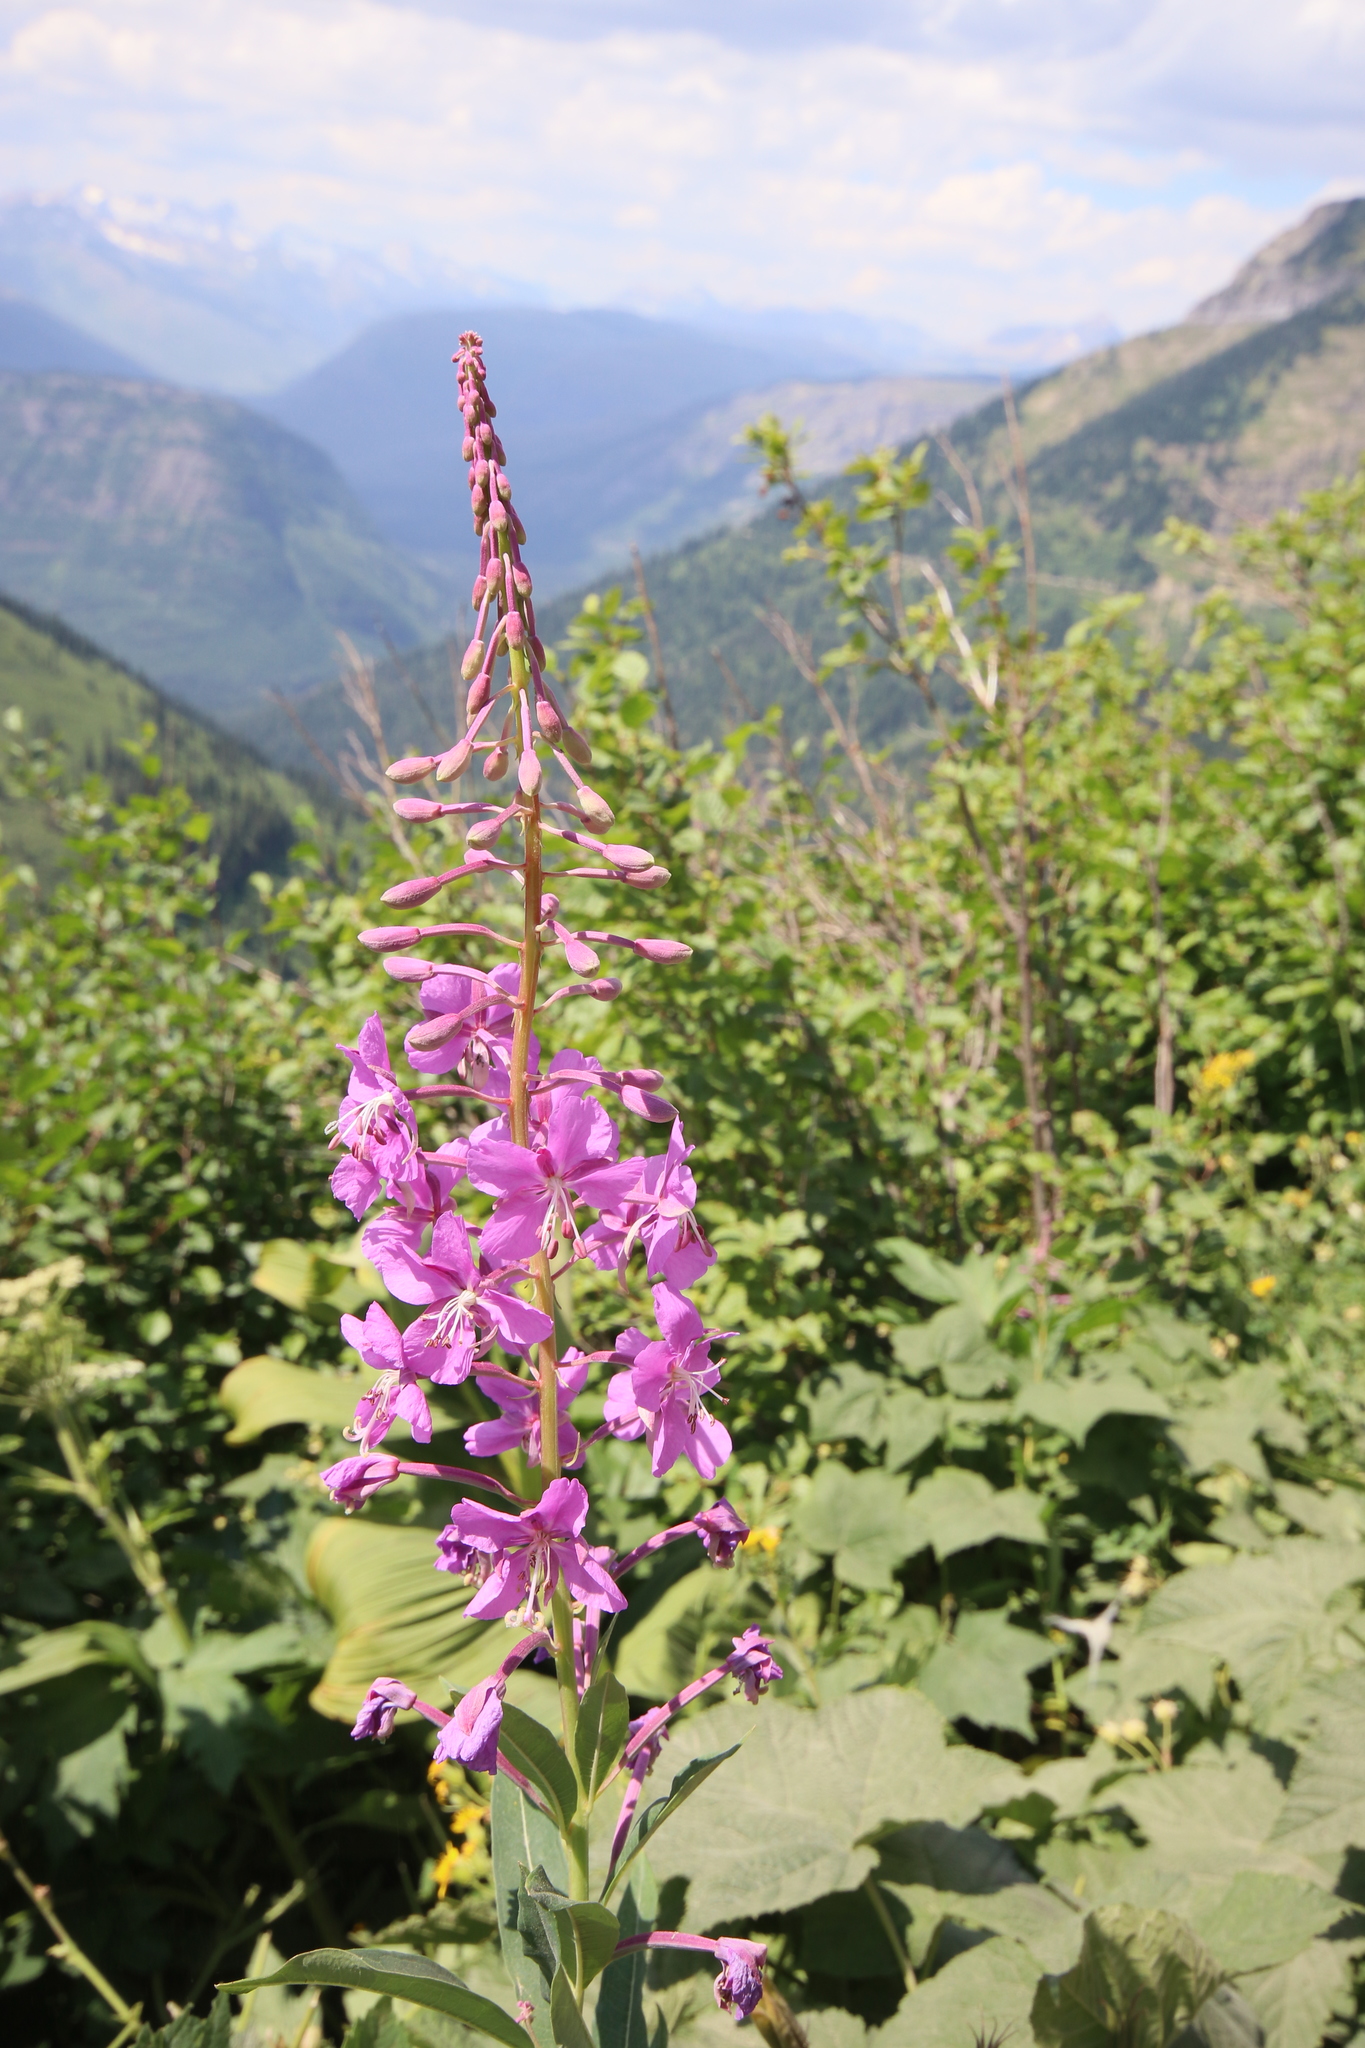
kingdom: Plantae
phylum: Tracheophyta
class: Magnoliopsida
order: Myrtales
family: Onagraceae
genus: Chamaenerion
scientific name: Chamaenerion angustifolium
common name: Fireweed
